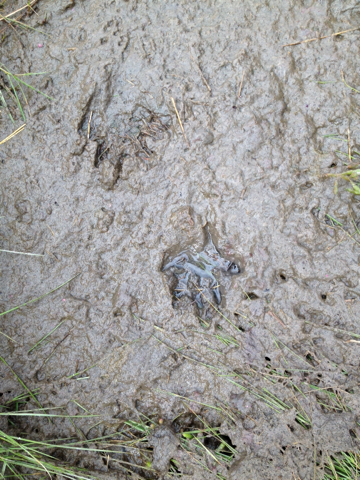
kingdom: Animalia
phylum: Chordata
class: Mammalia
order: Carnivora
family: Procyonidae
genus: Procyon
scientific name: Procyon lotor
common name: Raccoon
